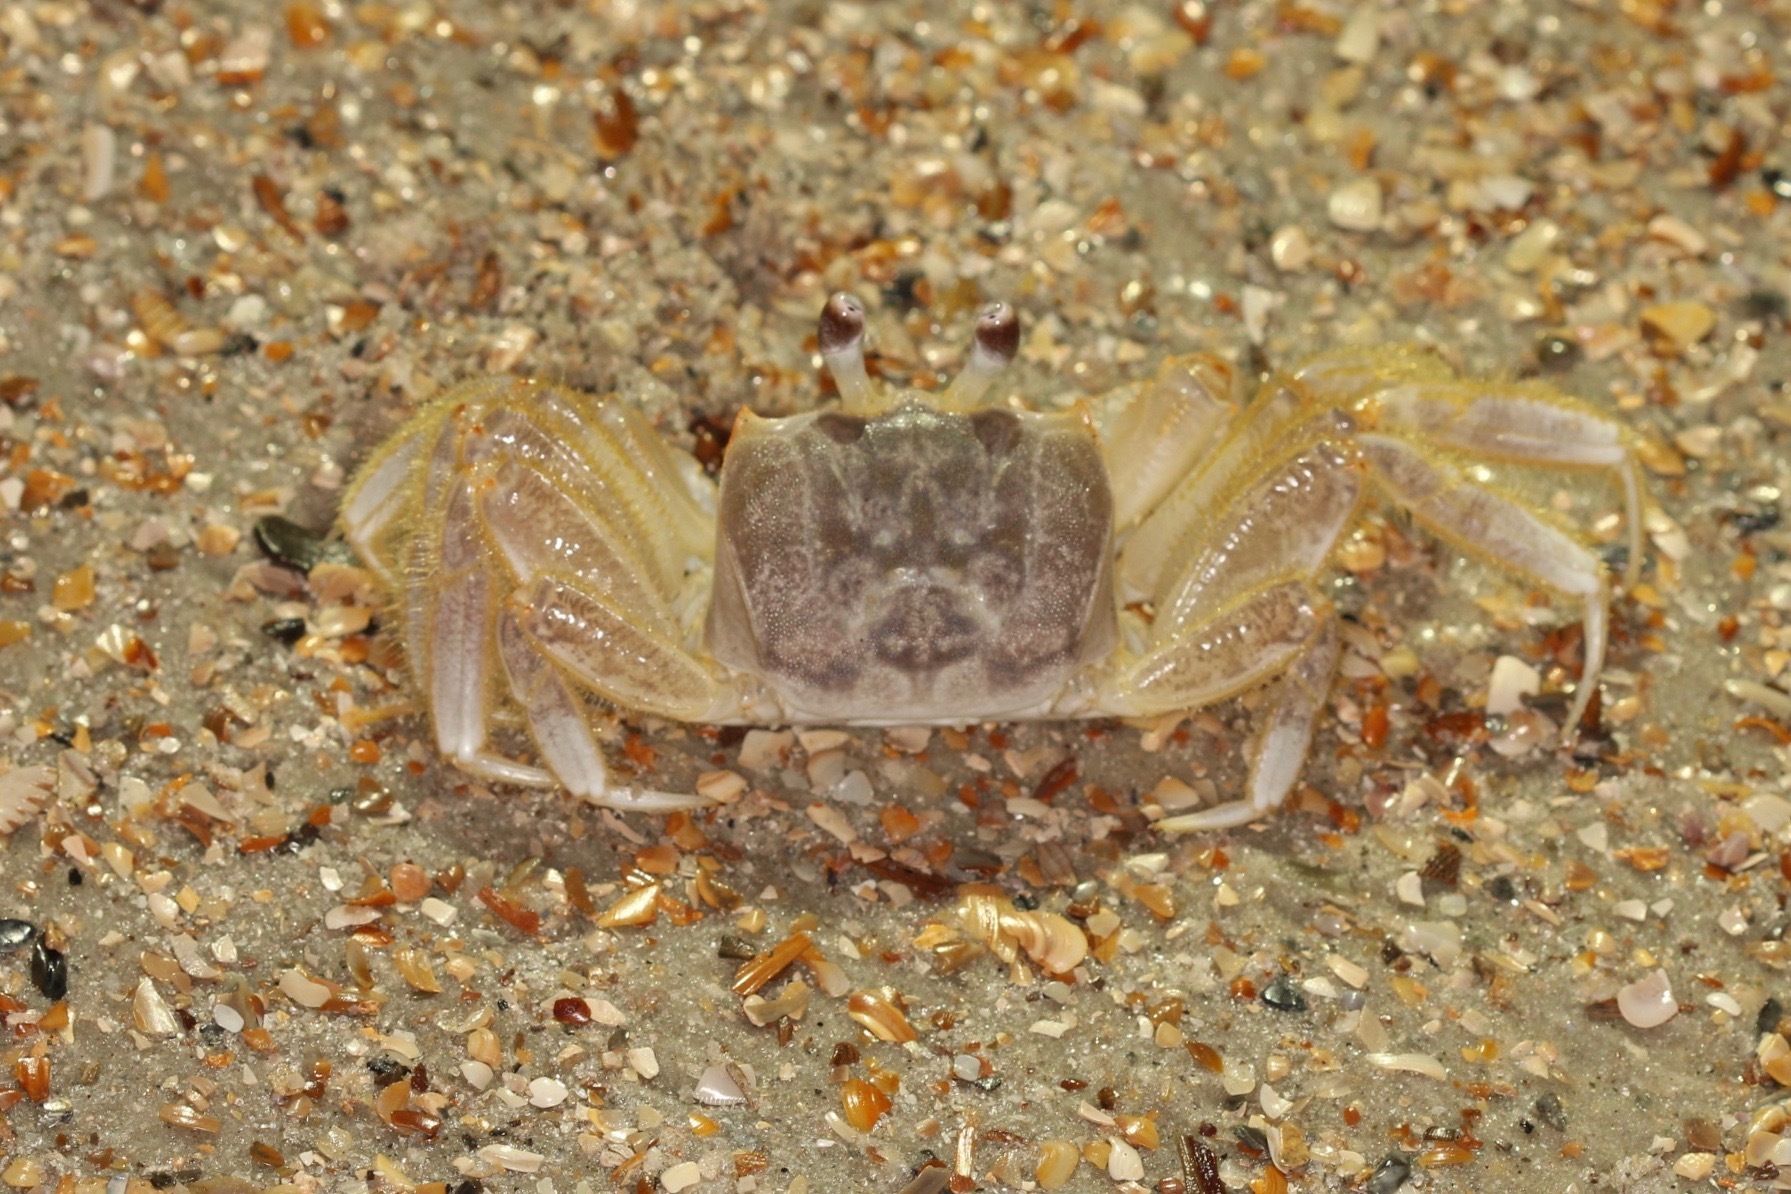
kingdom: Animalia
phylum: Arthropoda
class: Malacostraca
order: Decapoda
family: Ocypodidae
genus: Ocypode
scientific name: Ocypode quadrata
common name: Ghost crab
